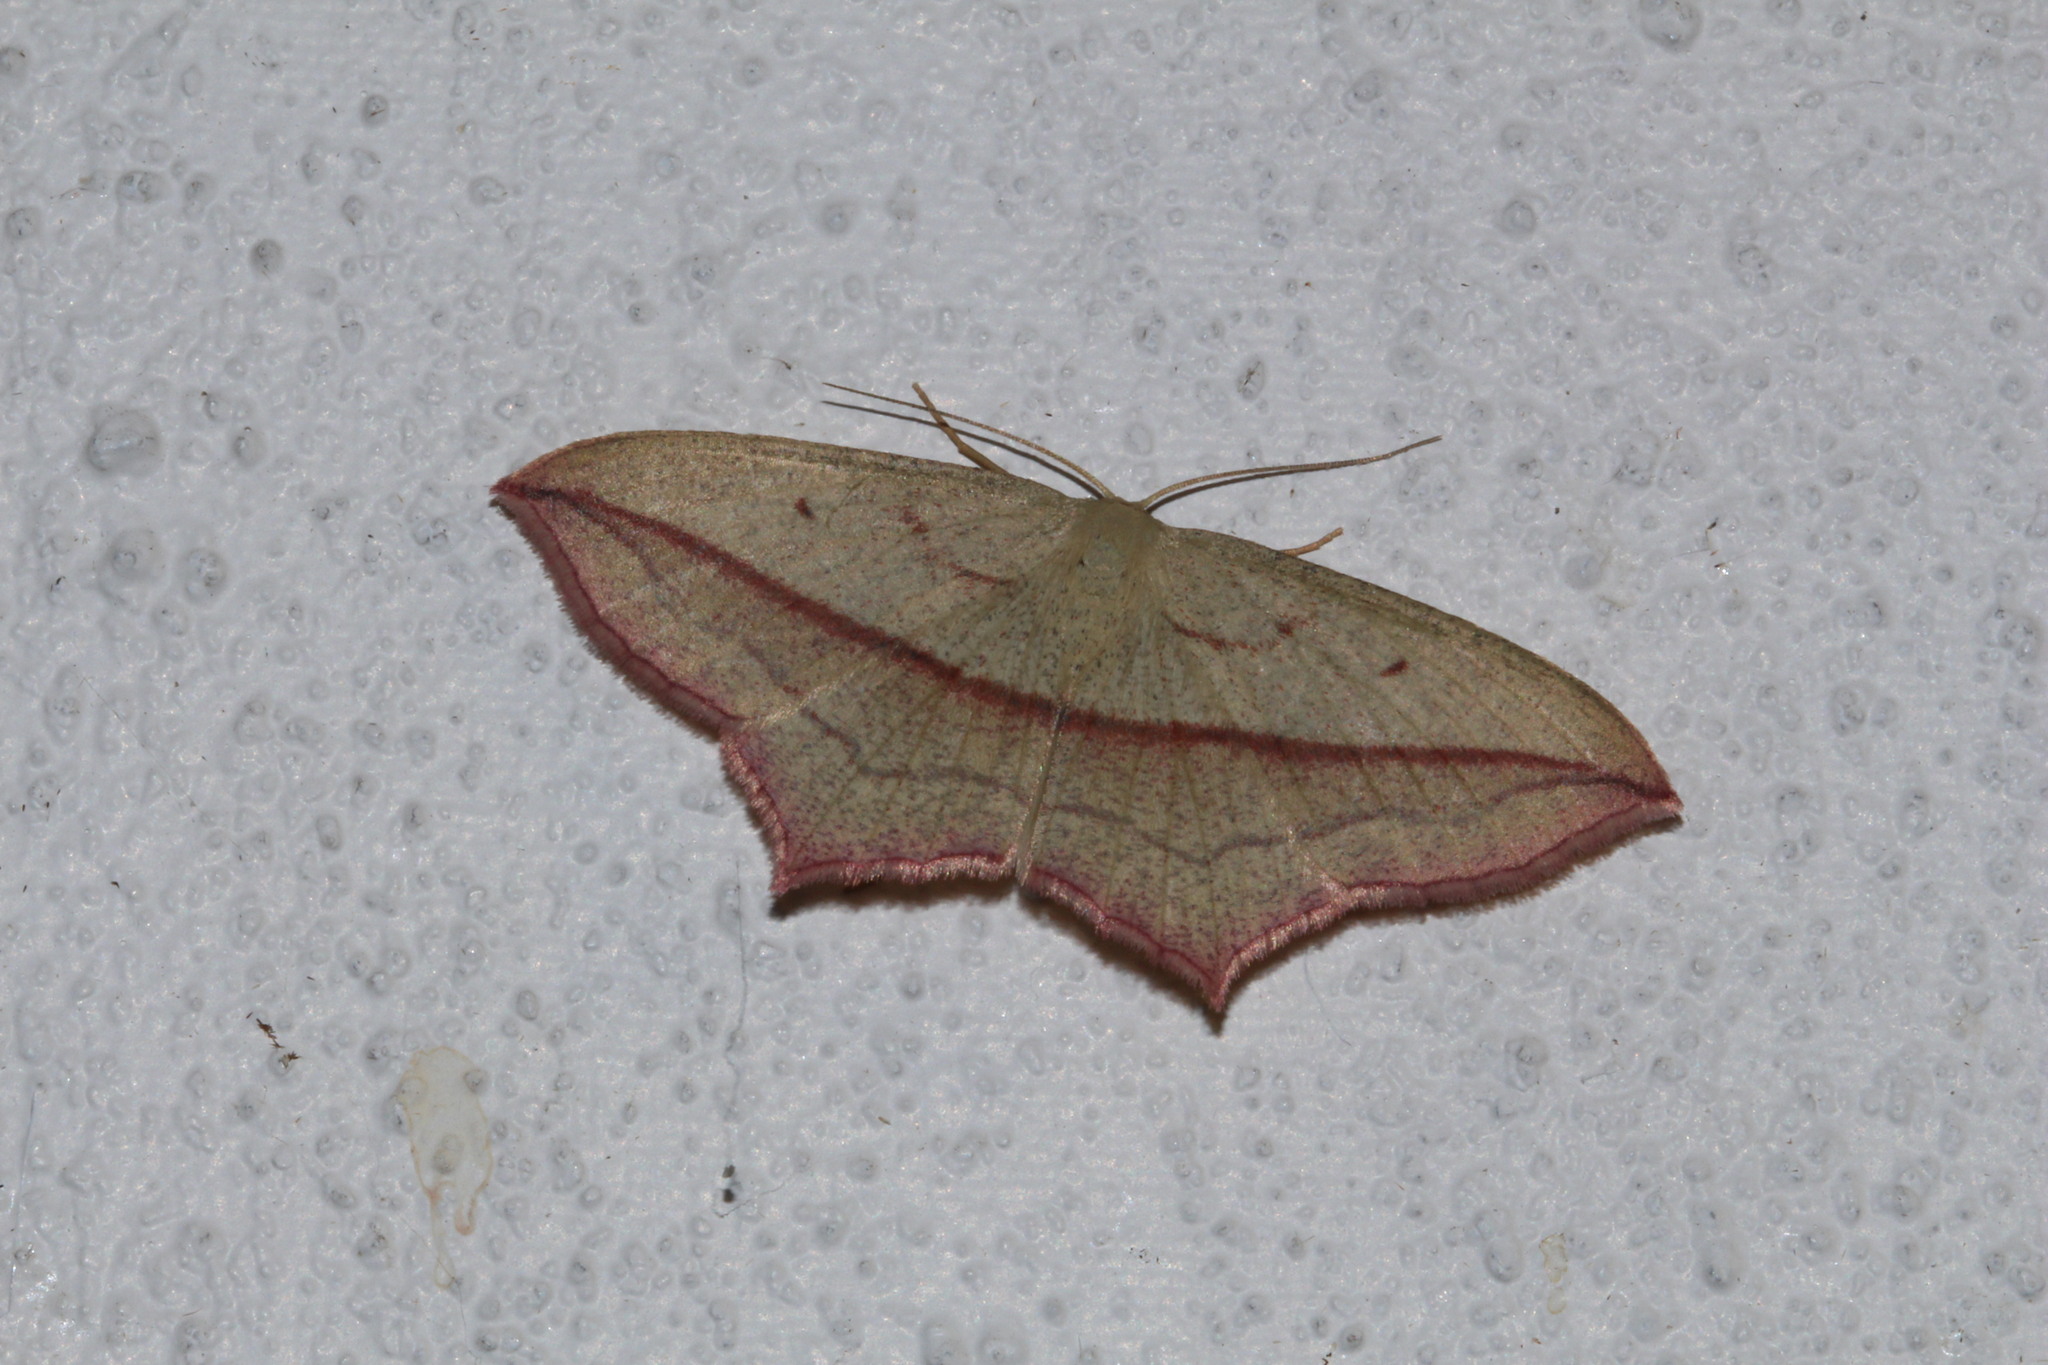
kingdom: Animalia
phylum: Arthropoda
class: Insecta
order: Lepidoptera
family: Geometridae
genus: Timandra
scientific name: Timandra comae
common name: Blood-vein
